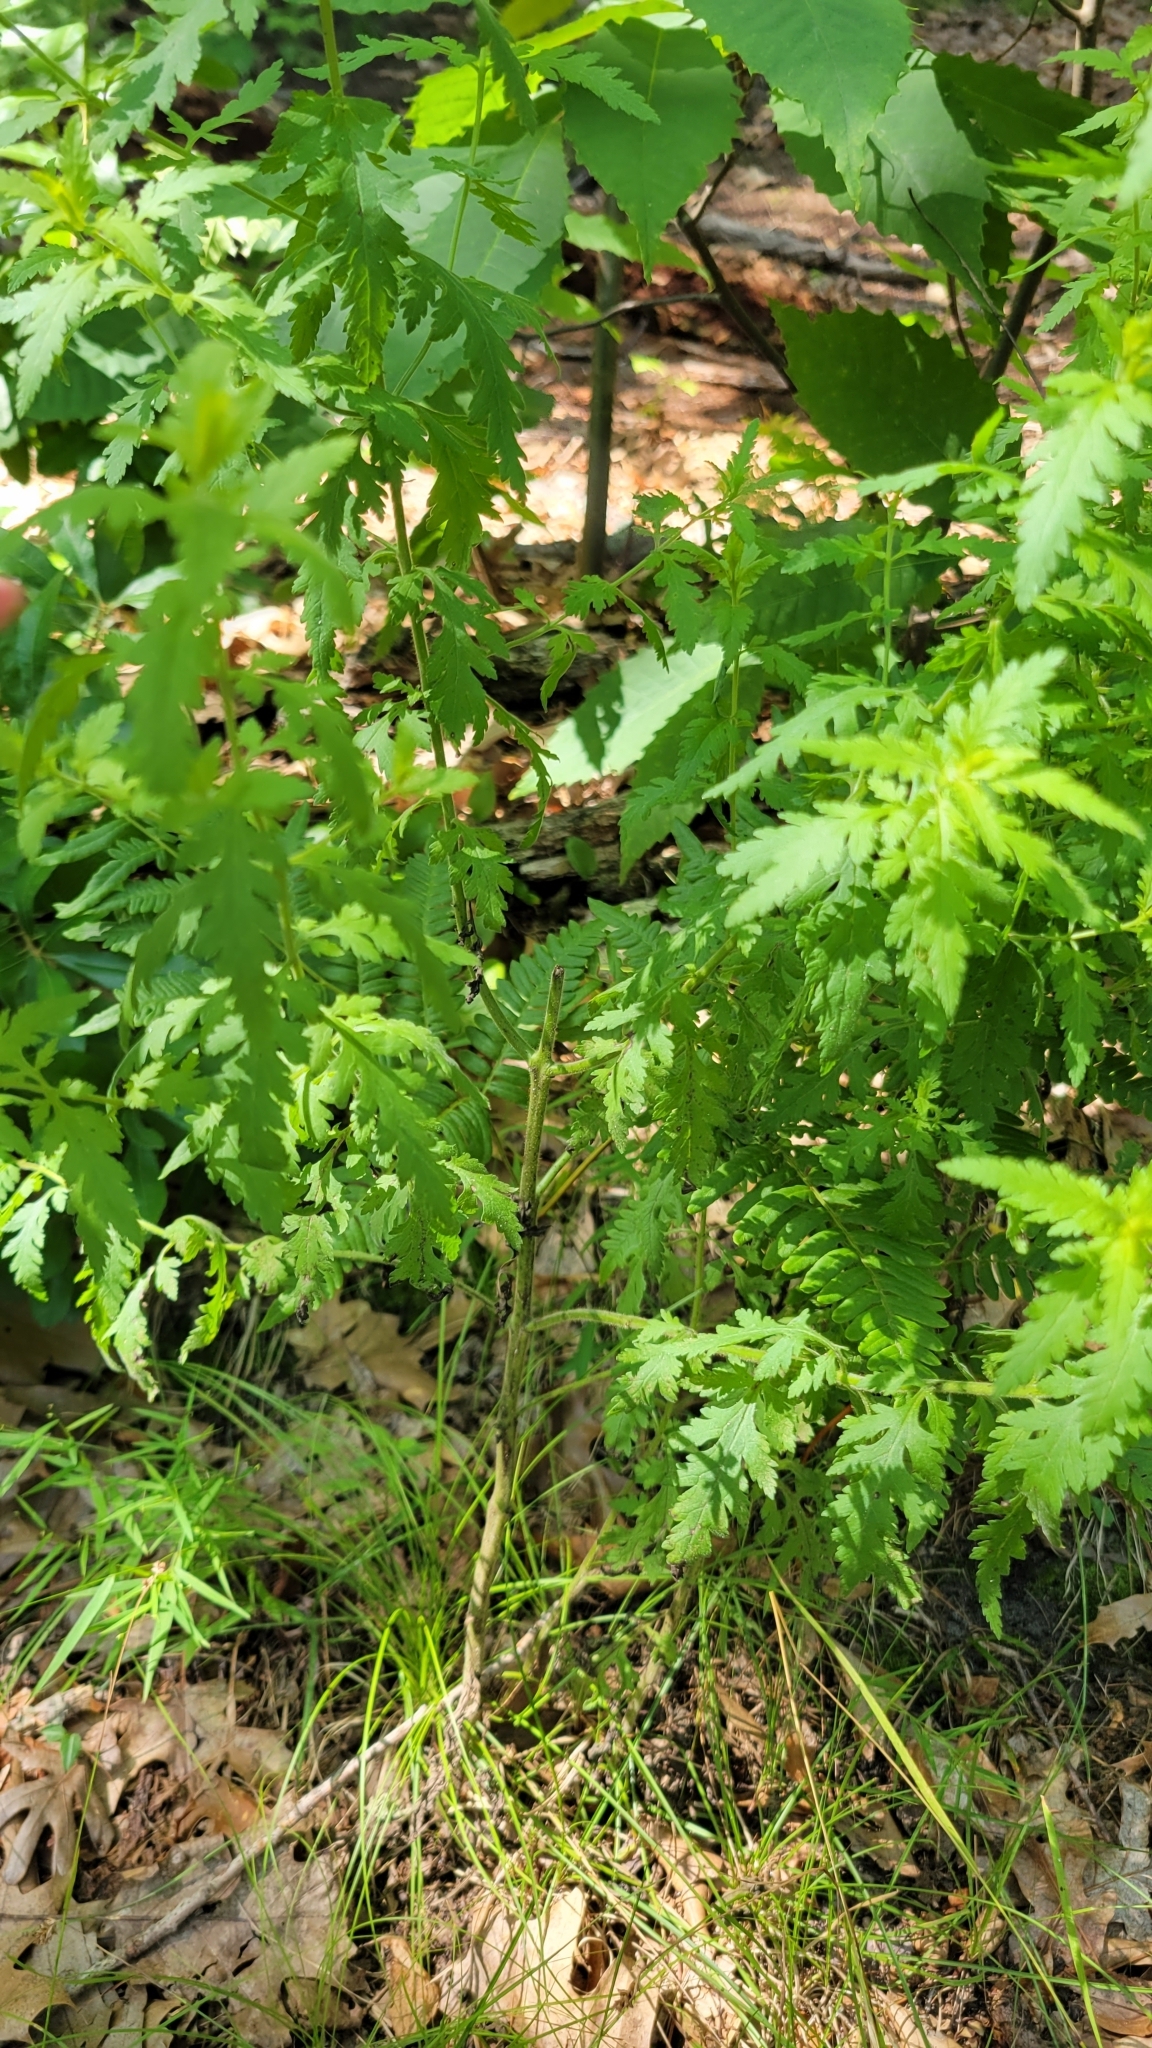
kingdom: Plantae
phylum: Tracheophyta
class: Magnoliopsida
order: Lamiales
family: Orobanchaceae
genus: Aureolaria
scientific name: Aureolaria pedicularia
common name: Annual false foxglove
